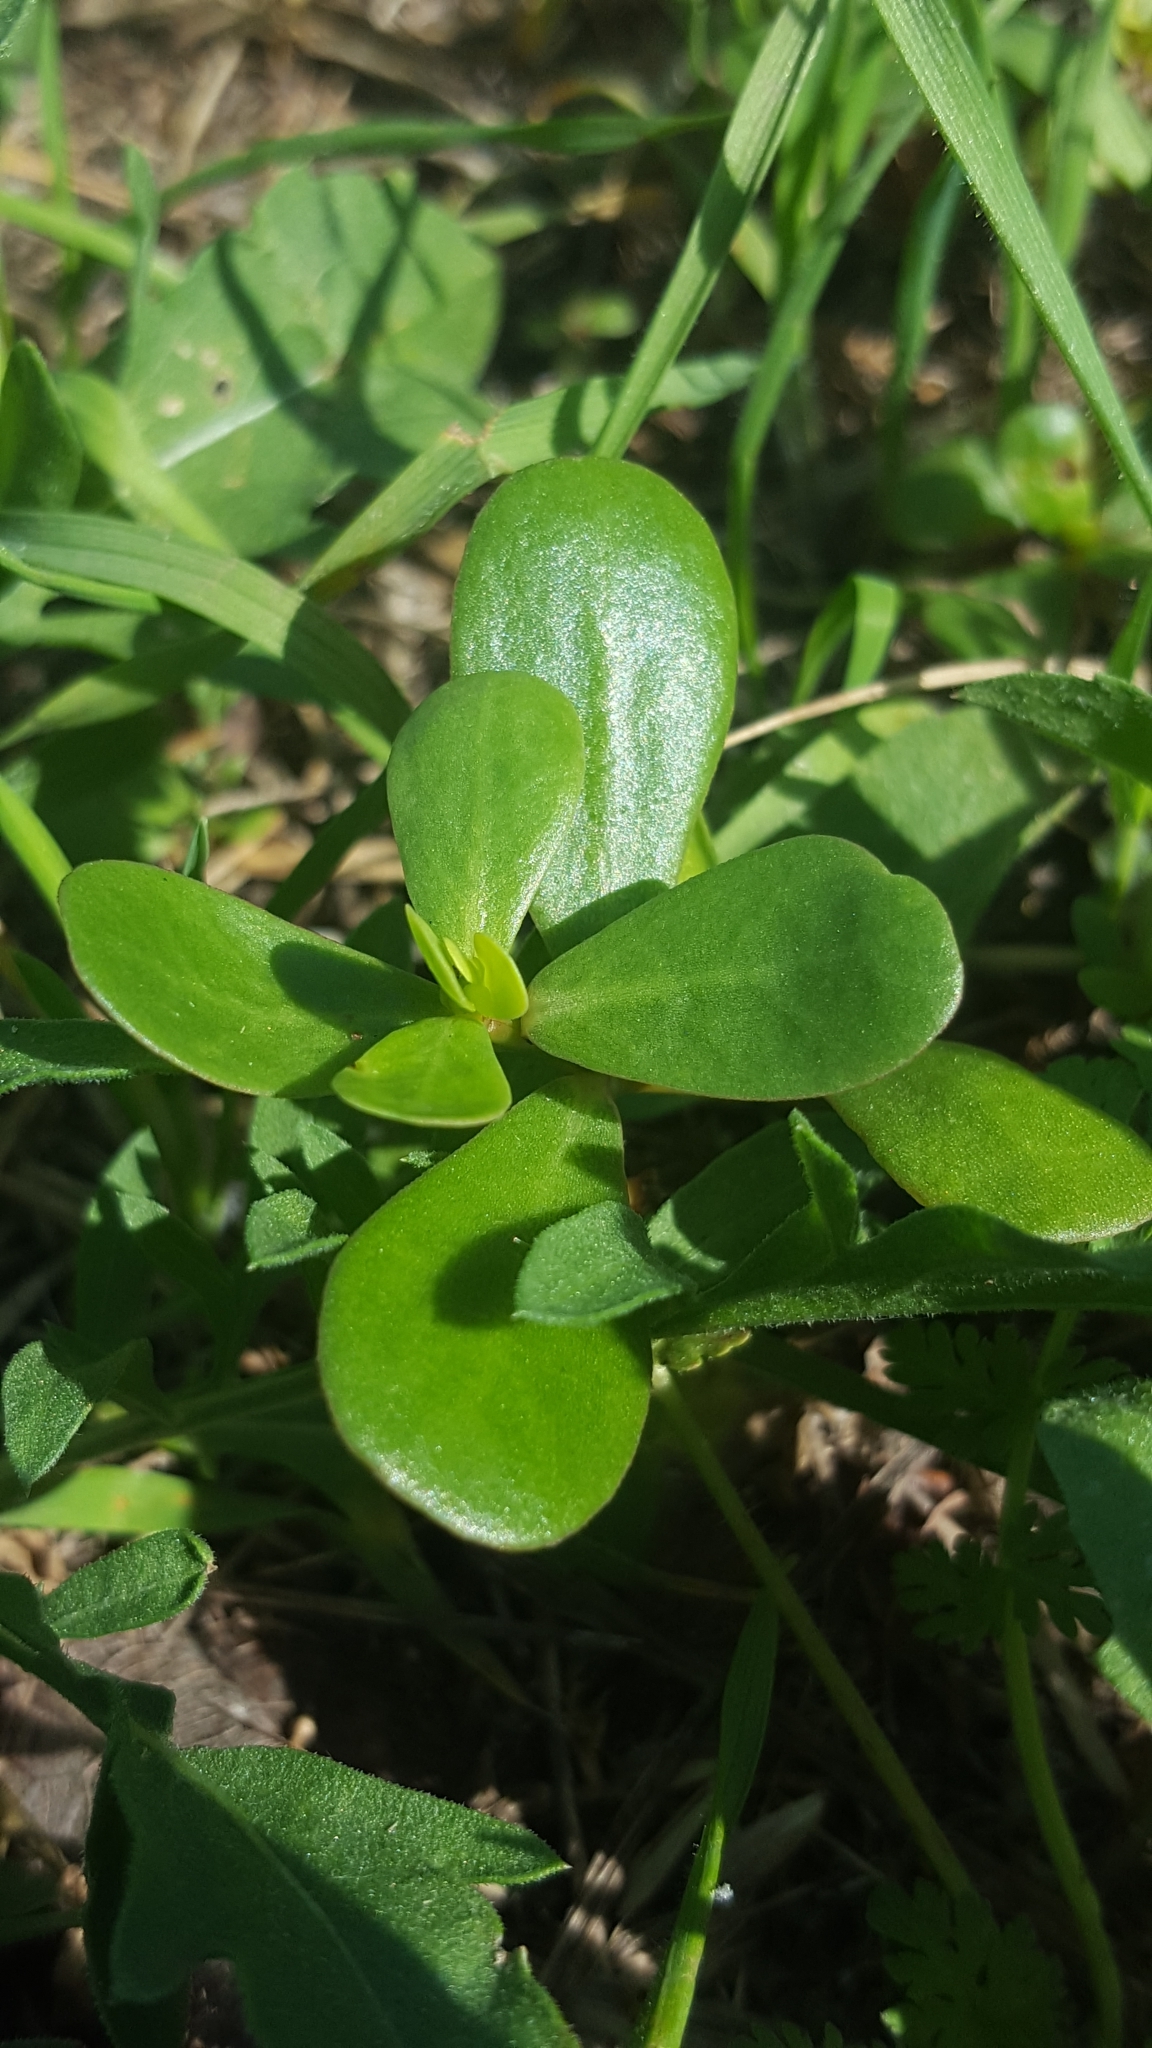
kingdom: Plantae
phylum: Tracheophyta
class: Magnoliopsida
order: Caryophyllales
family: Portulacaceae
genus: Portulaca
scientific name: Portulaca oleracea
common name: Common purslane
